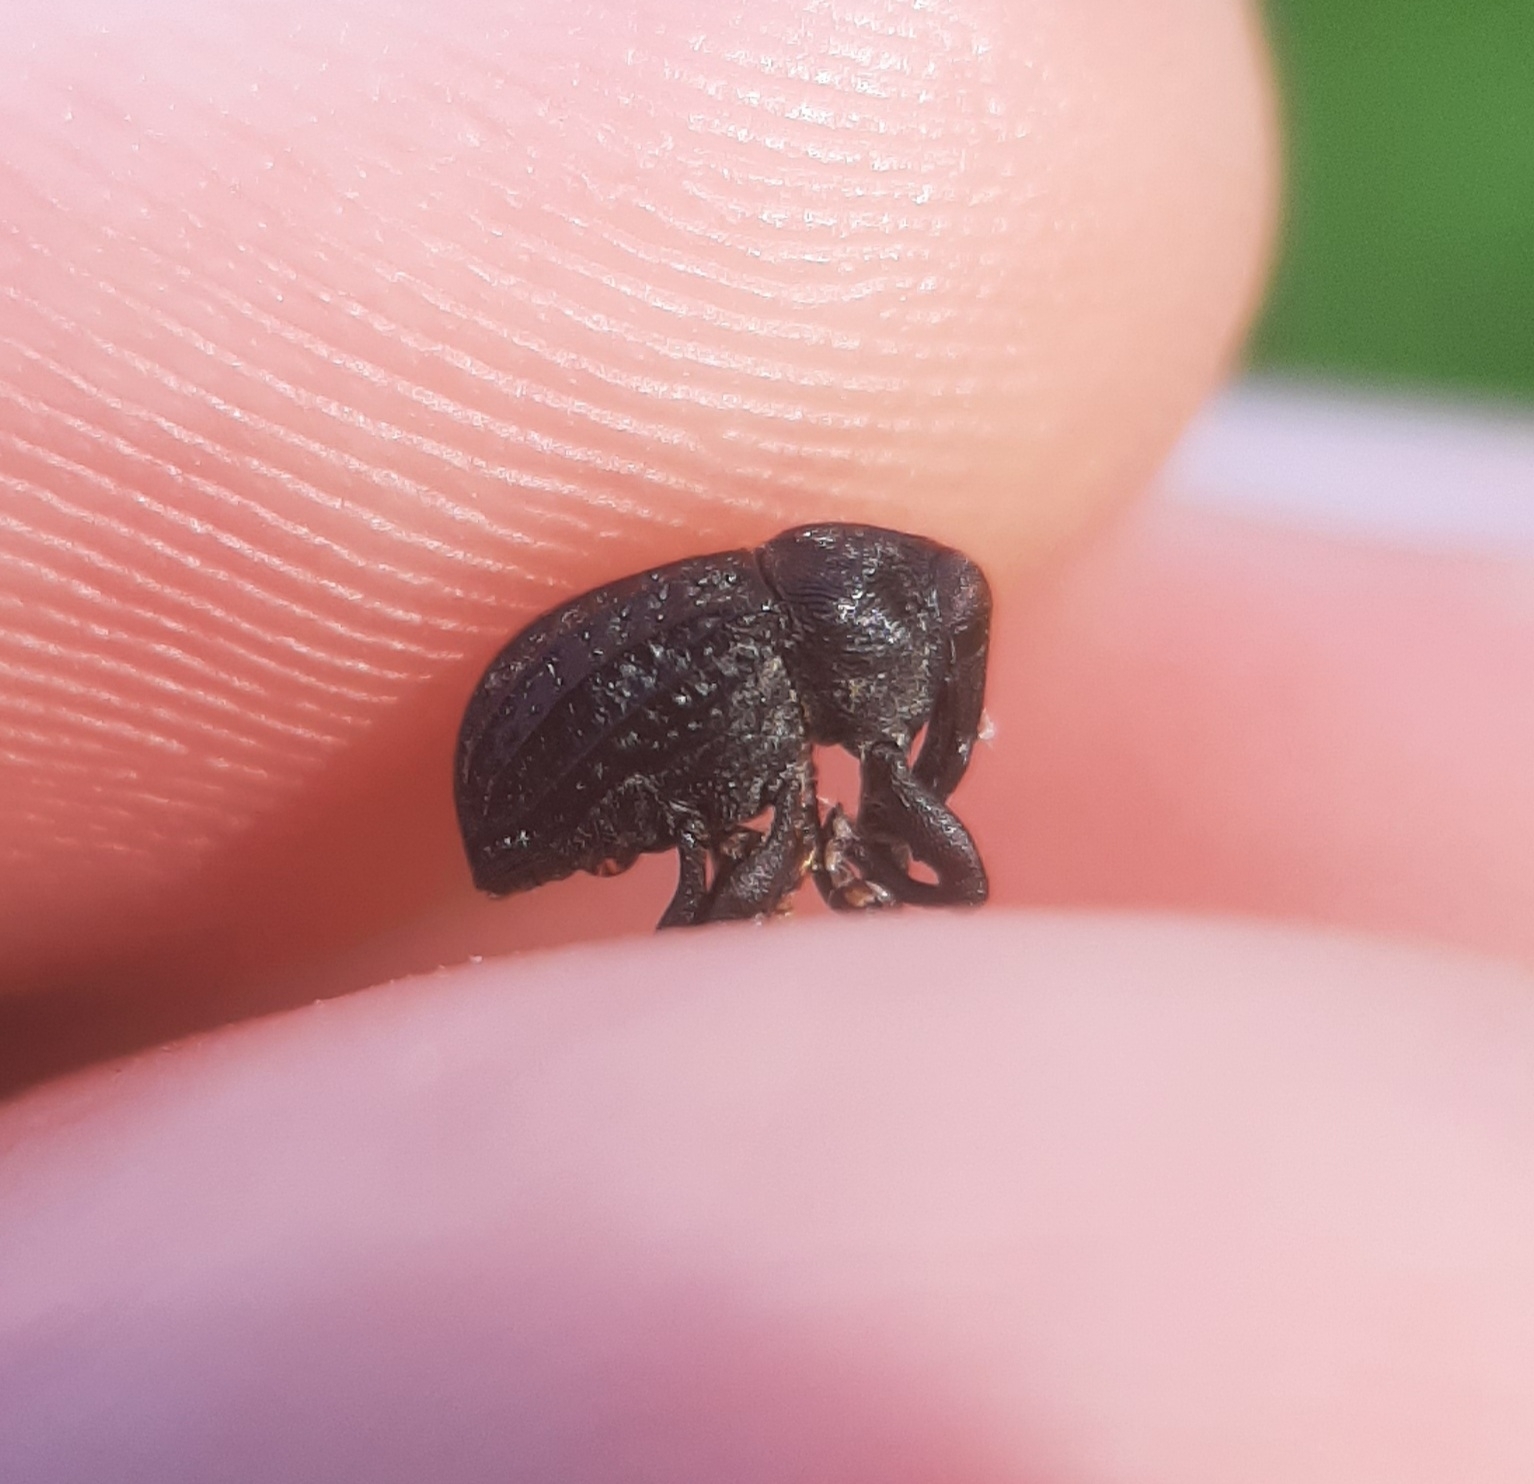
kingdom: Animalia
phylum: Arthropoda
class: Insecta
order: Coleoptera
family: Curculionidae
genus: Rhyssomatus
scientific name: Rhyssomatus lineaticollis
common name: Milkweed stem weevil
